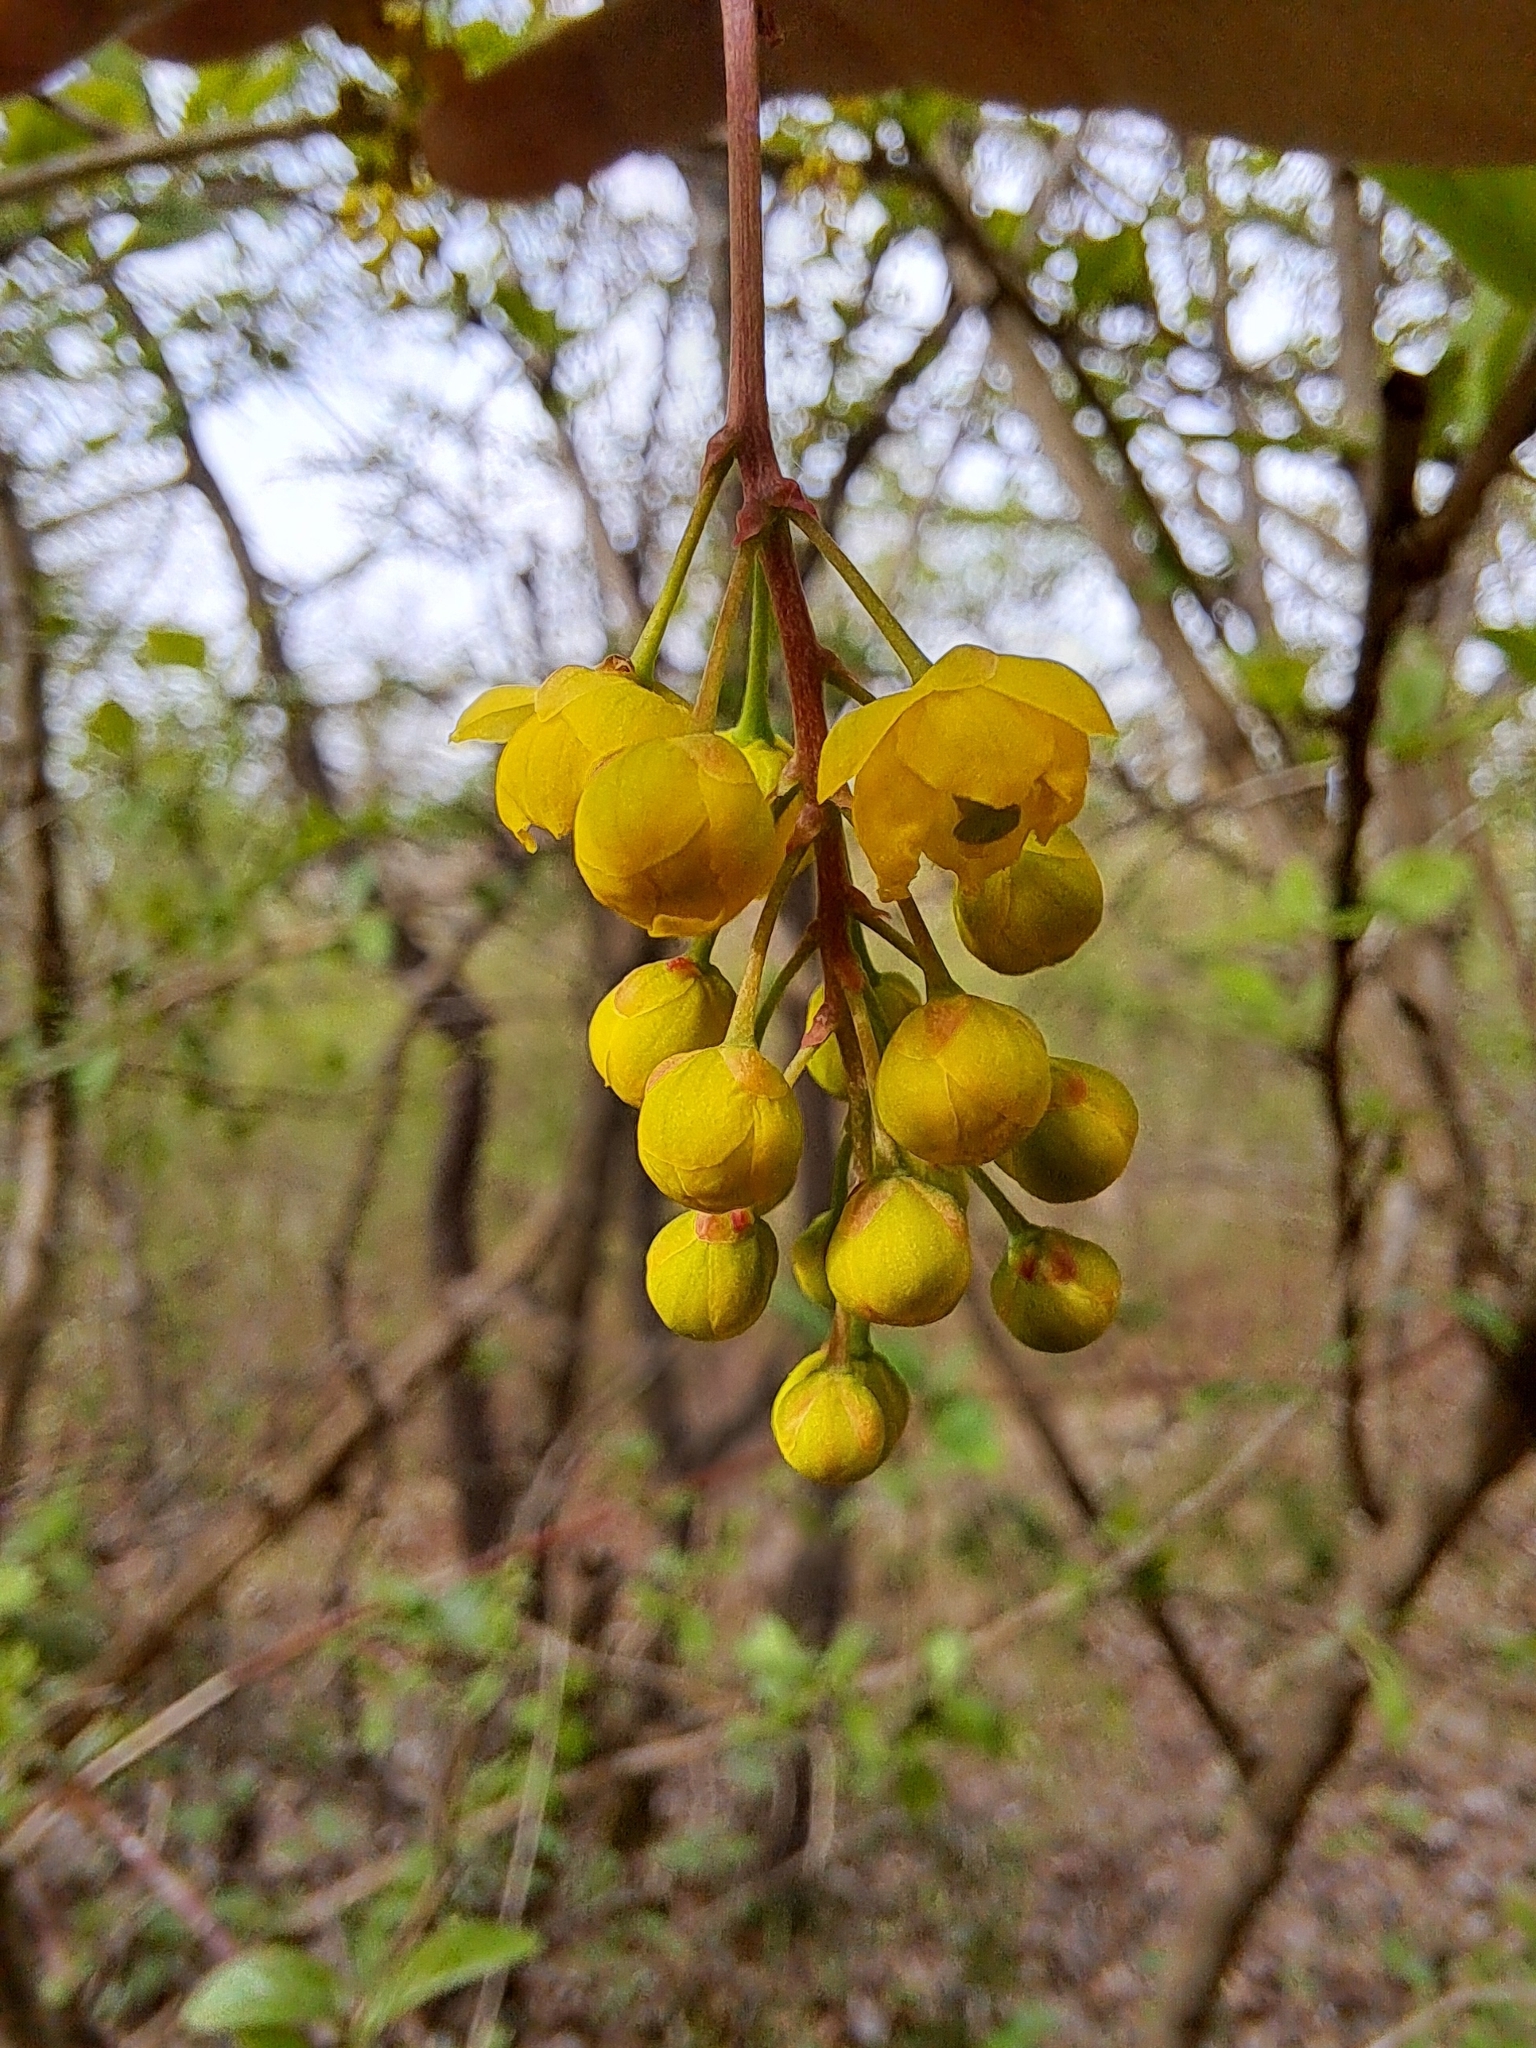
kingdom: Plantae
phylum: Tracheophyta
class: Magnoliopsida
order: Ranunculales
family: Berberidaceae
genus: Berberis
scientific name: Berberis vulgaris
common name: Barberry
